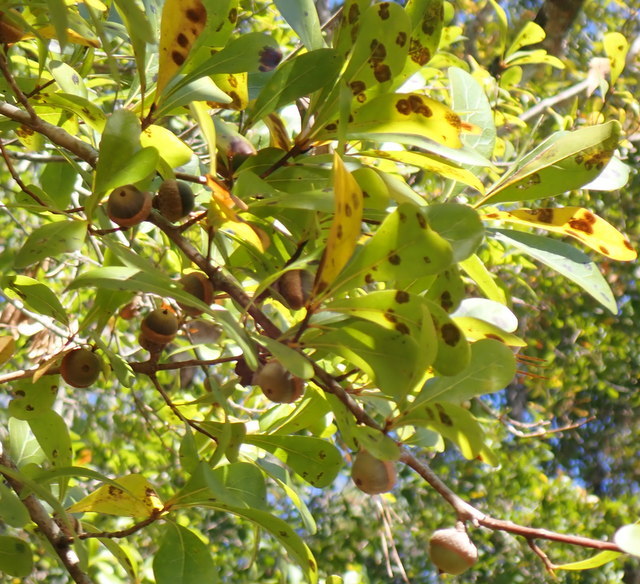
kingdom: Plantae
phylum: Tracheophyta
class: Magnoliopsida
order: Fagales
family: Fagaceae
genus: Quercus
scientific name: Quercus nigra
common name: Water oak
